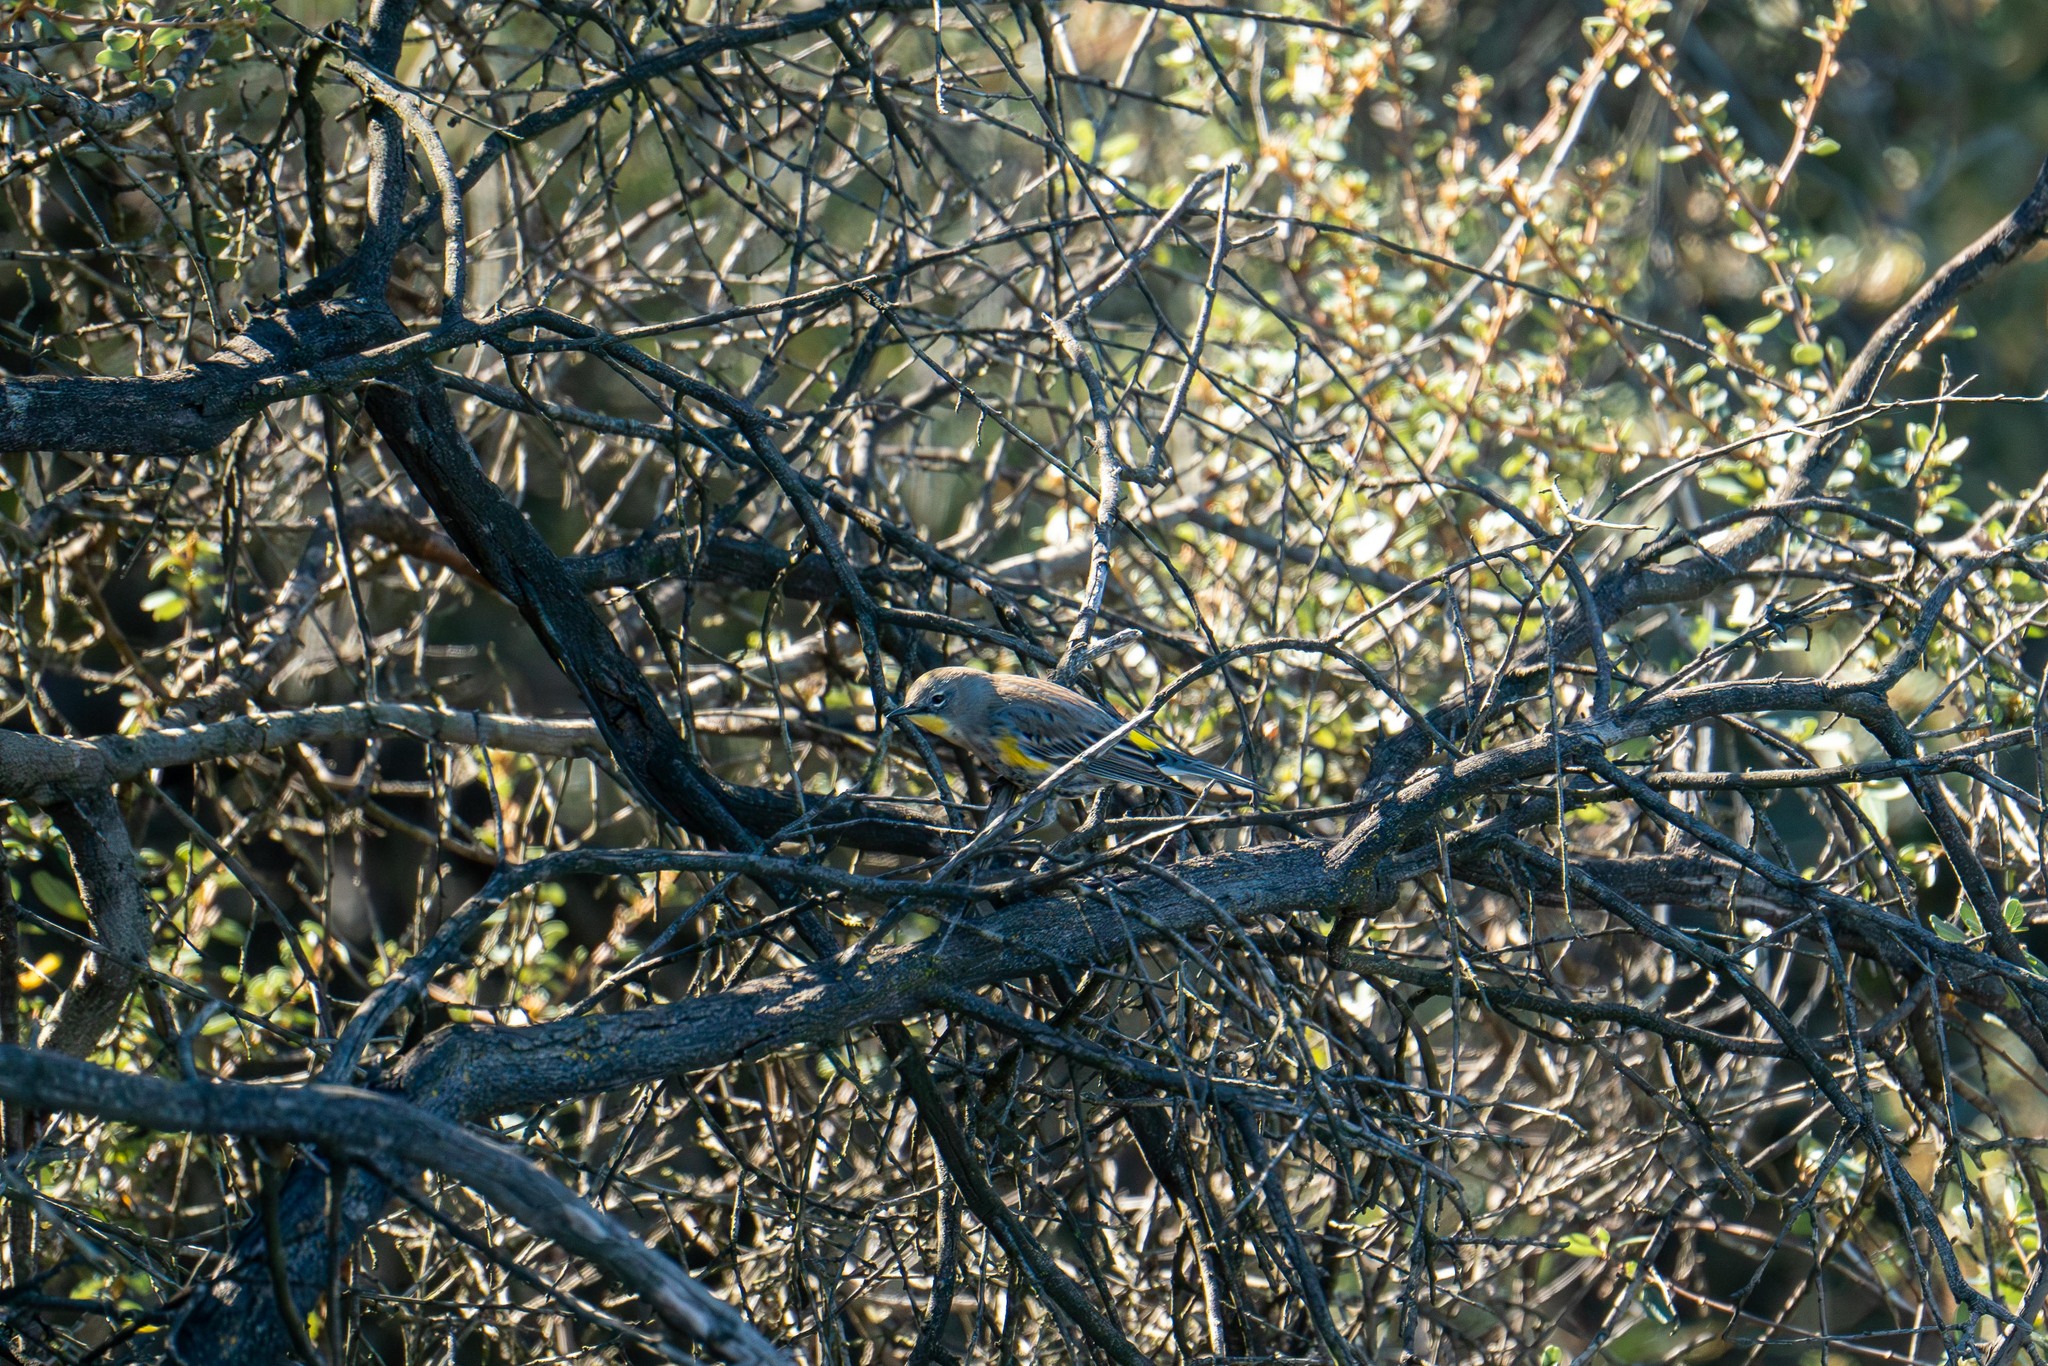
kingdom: Animalia
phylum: Chordata
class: Aves
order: Passeriformes
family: Parulidae
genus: Setophaga
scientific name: Setophaga coronata
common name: Myrtle warbler
